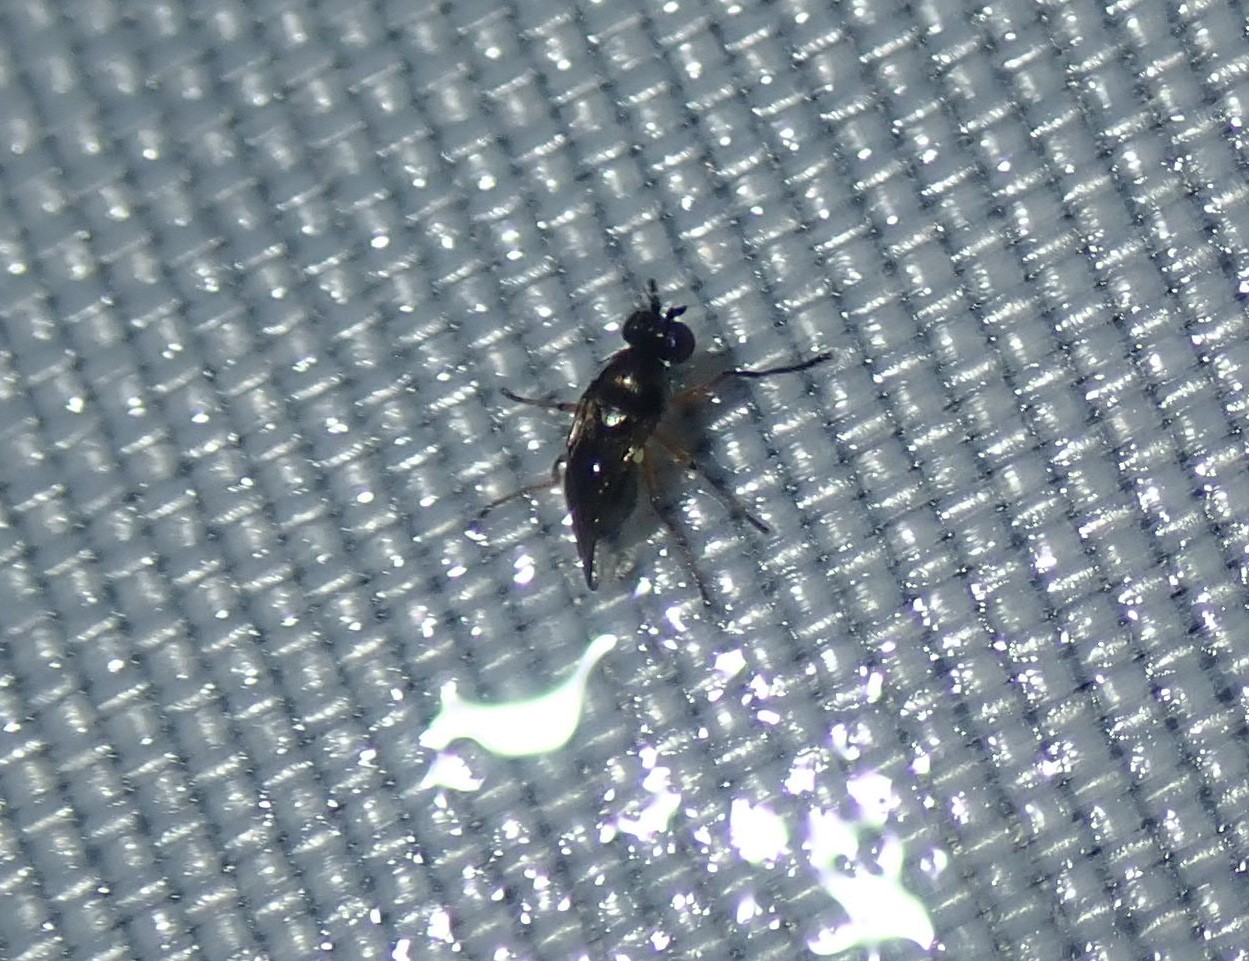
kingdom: Animalia
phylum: Arthropoda
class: Insecta
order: Diptera
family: Ephydridae
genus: Hydrellia
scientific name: Hydrellia tritici
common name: Shore fly
